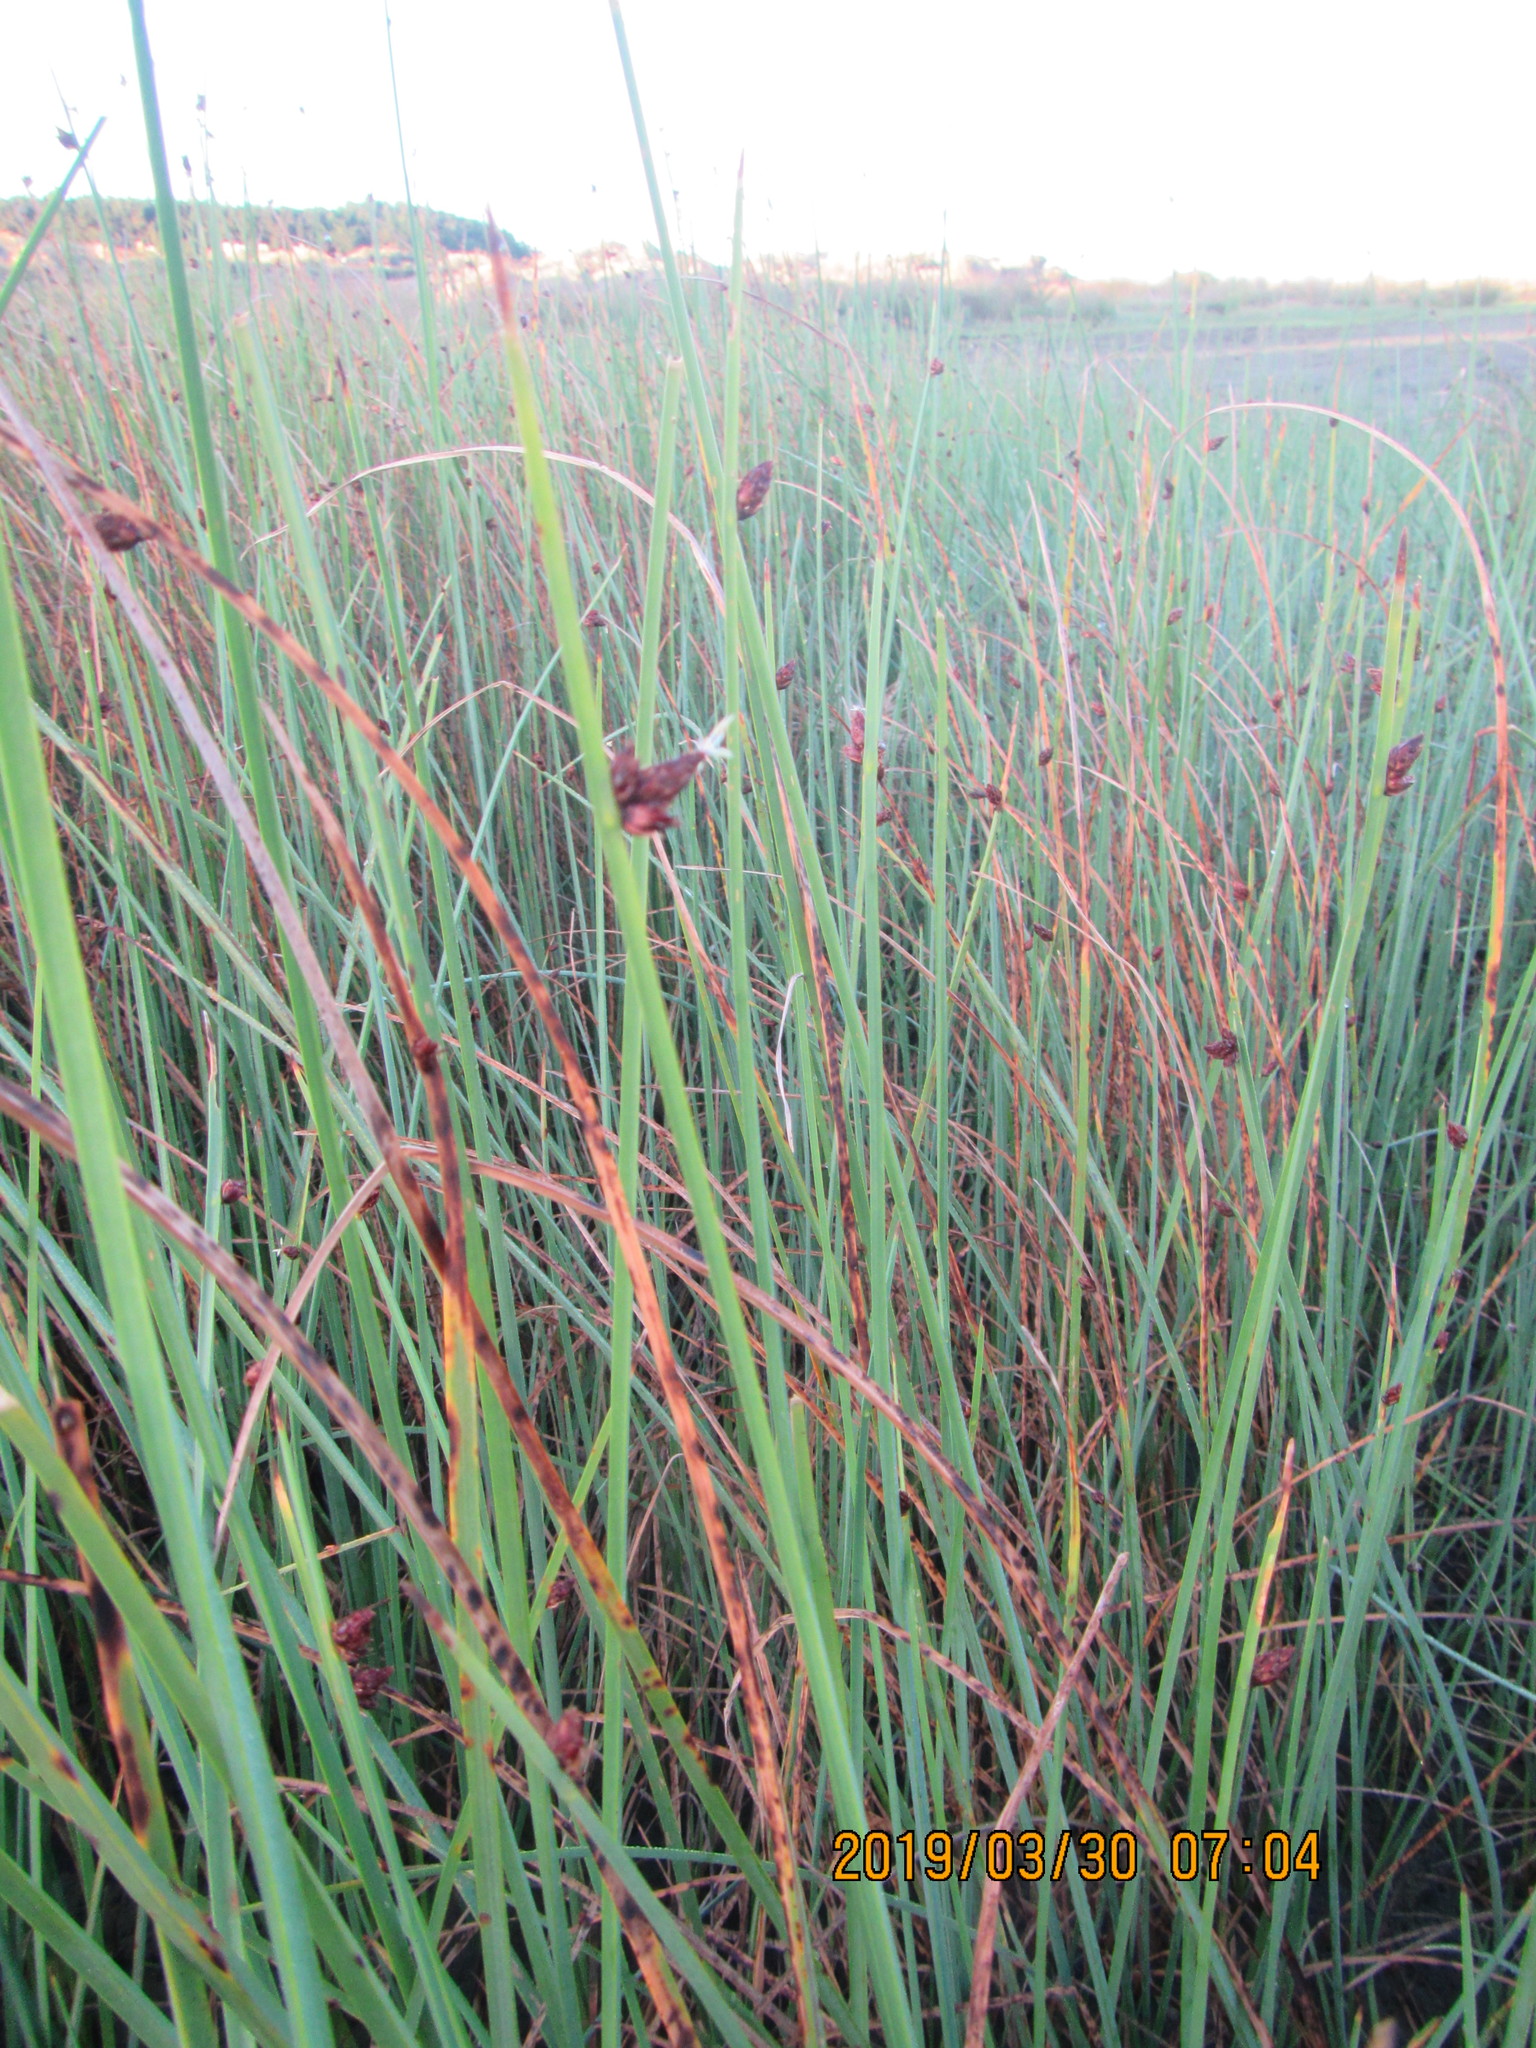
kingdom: Plantae
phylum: Tracheophyta
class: Liliopsida
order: Poales
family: Cyperaceae
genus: Schoenoplectus
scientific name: Schoenoplectus pungens
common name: Sharp club-rush
